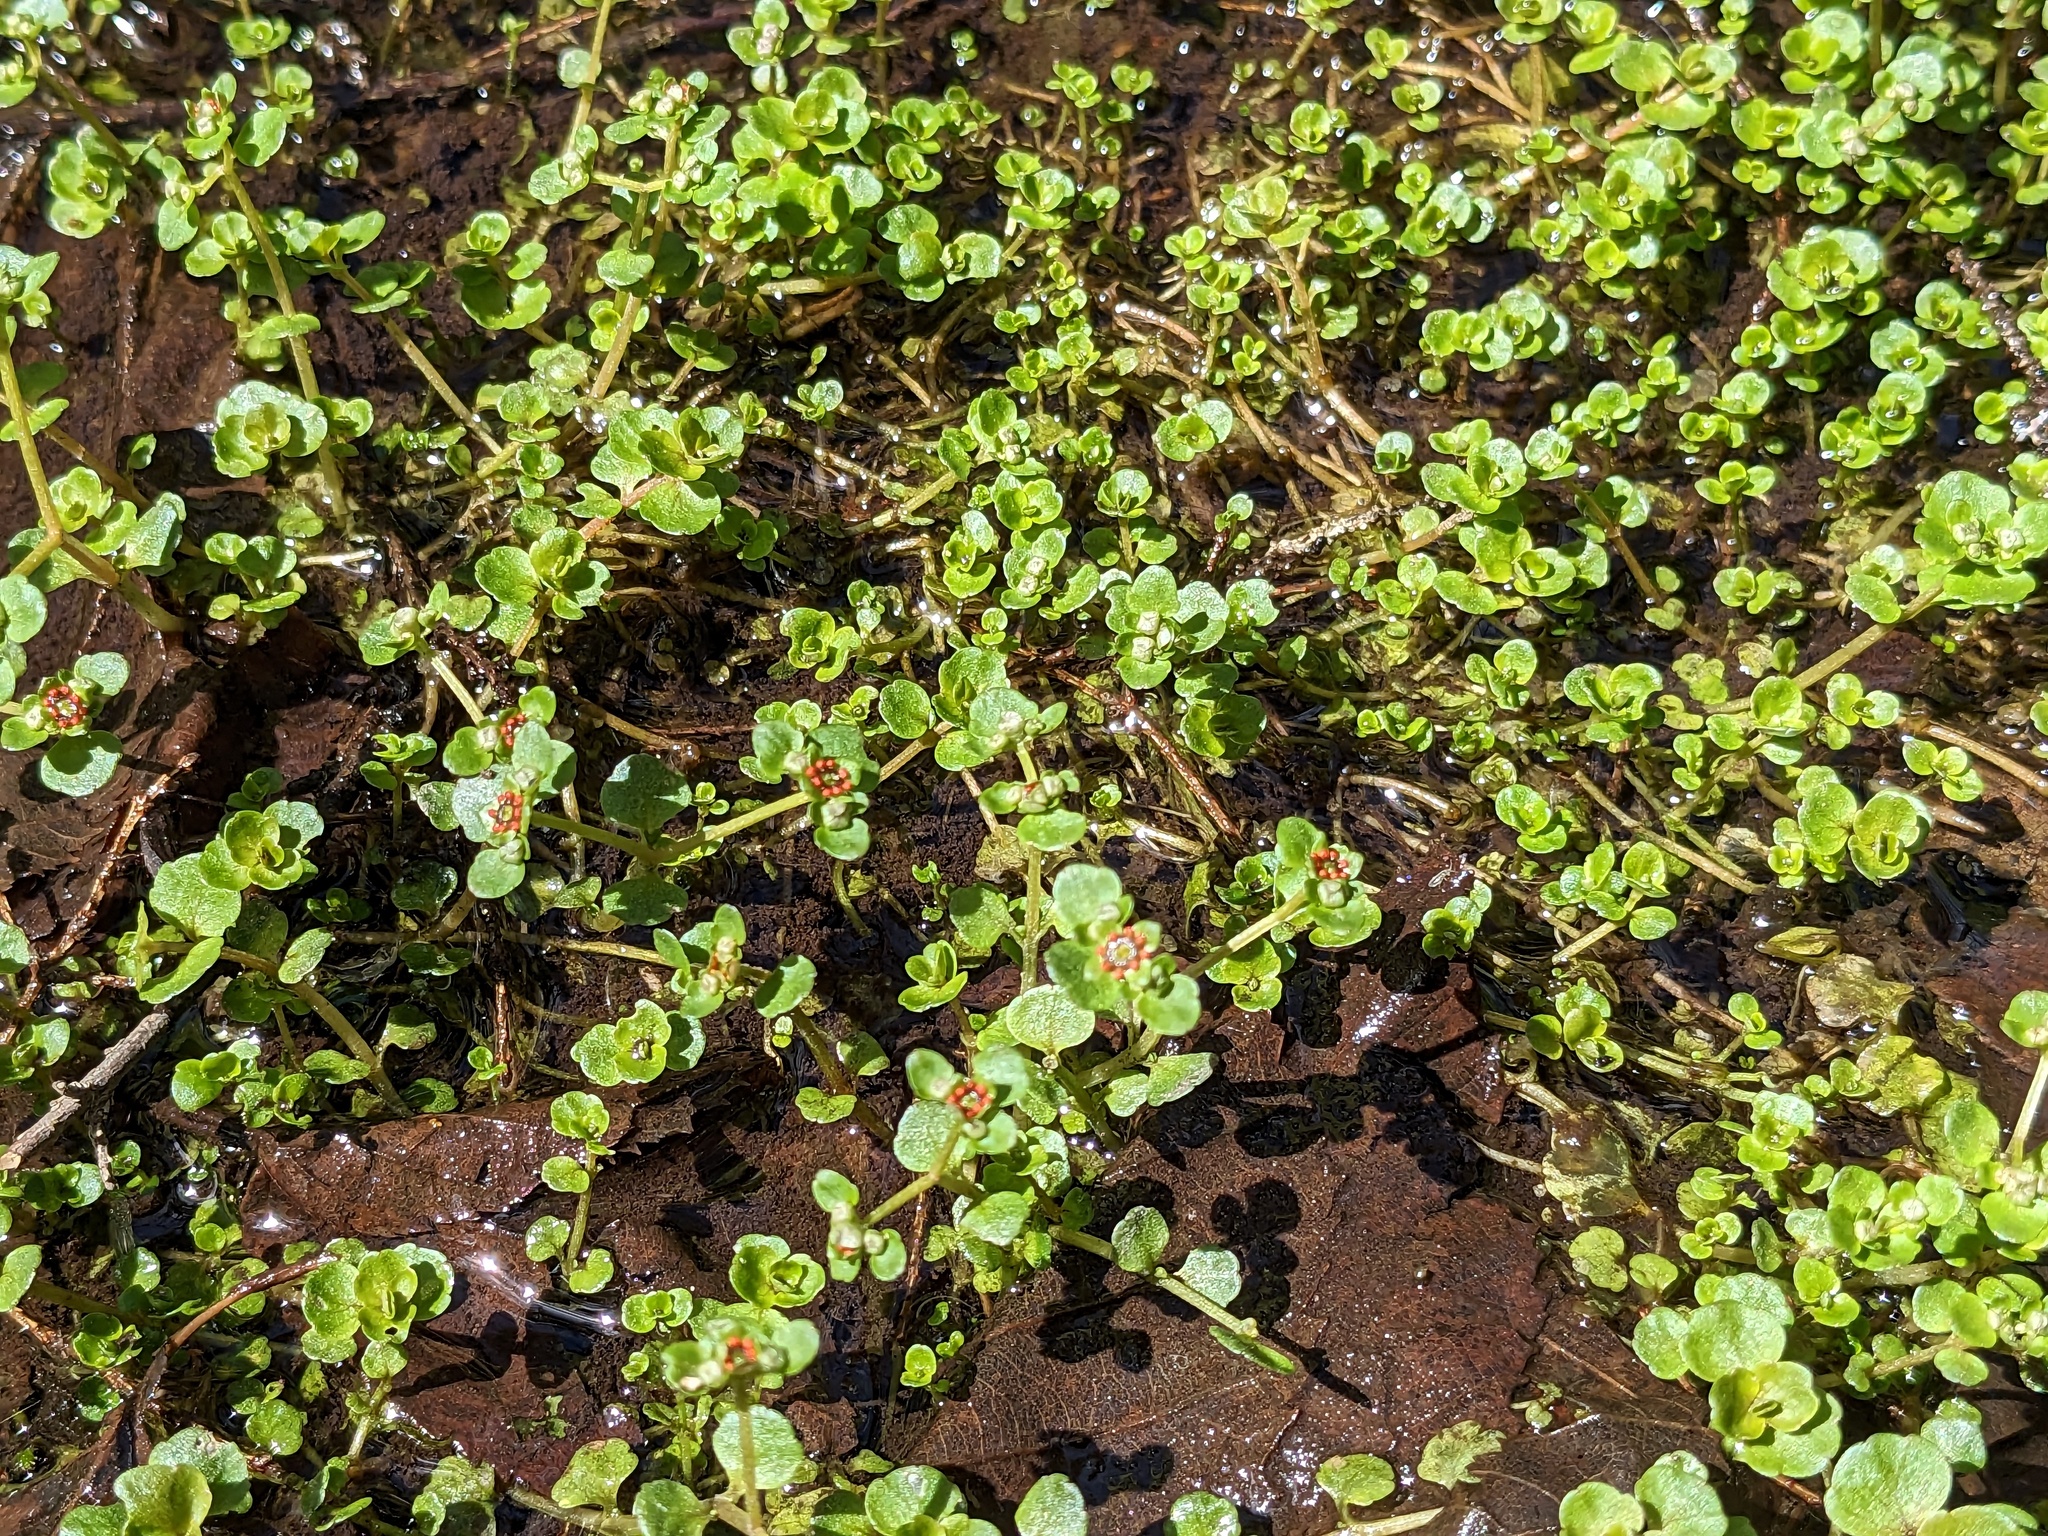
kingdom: Plantae
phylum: Tracheophyta
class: Magnoliopsida
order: Saxifragales
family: Saxifragaceae
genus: Chrysosplenium
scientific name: Chrysosplenium americanum
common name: American golden-saxifrage
